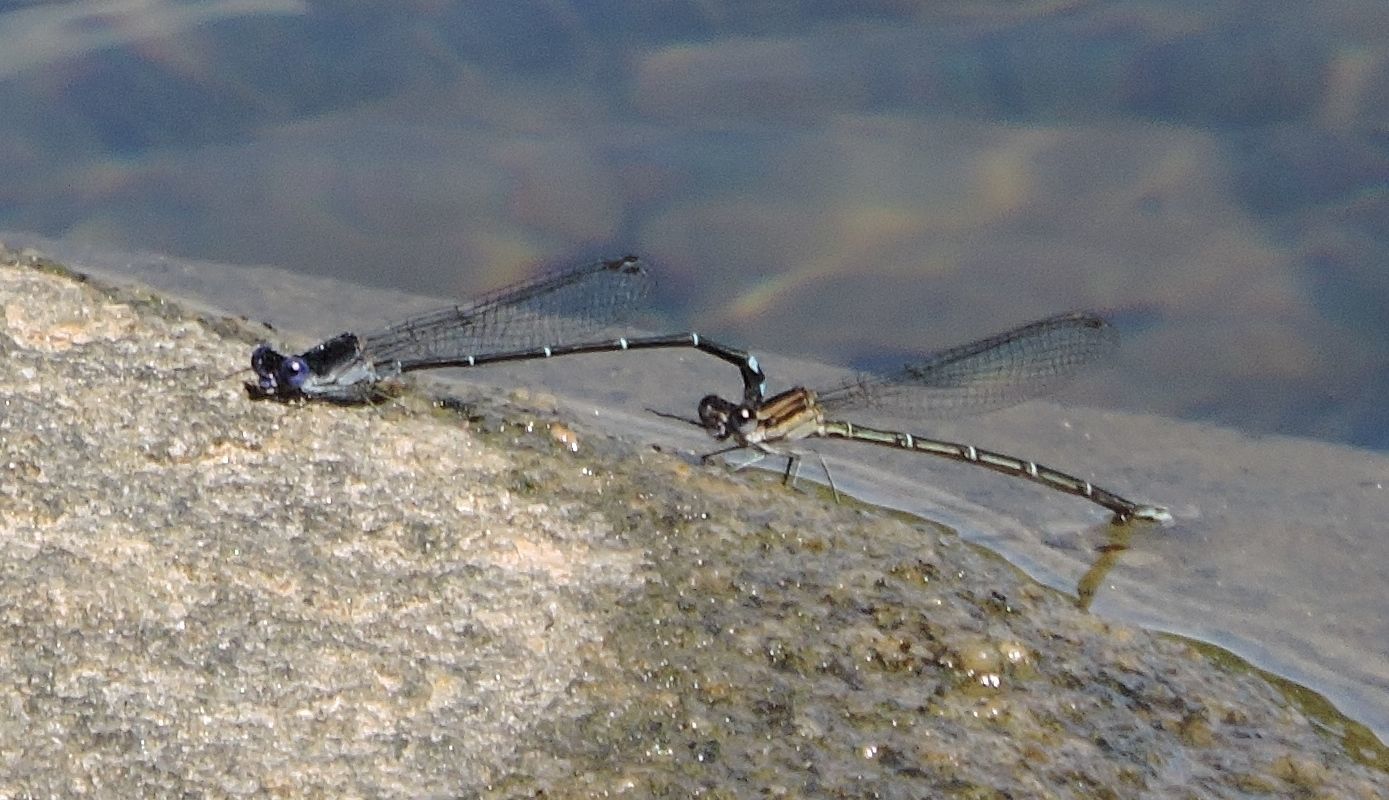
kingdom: Animalia
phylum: Arthropoda
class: Insecta
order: Odonata
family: Coenagrionidae
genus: Argia
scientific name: Argia translata
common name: Dusky dancer
